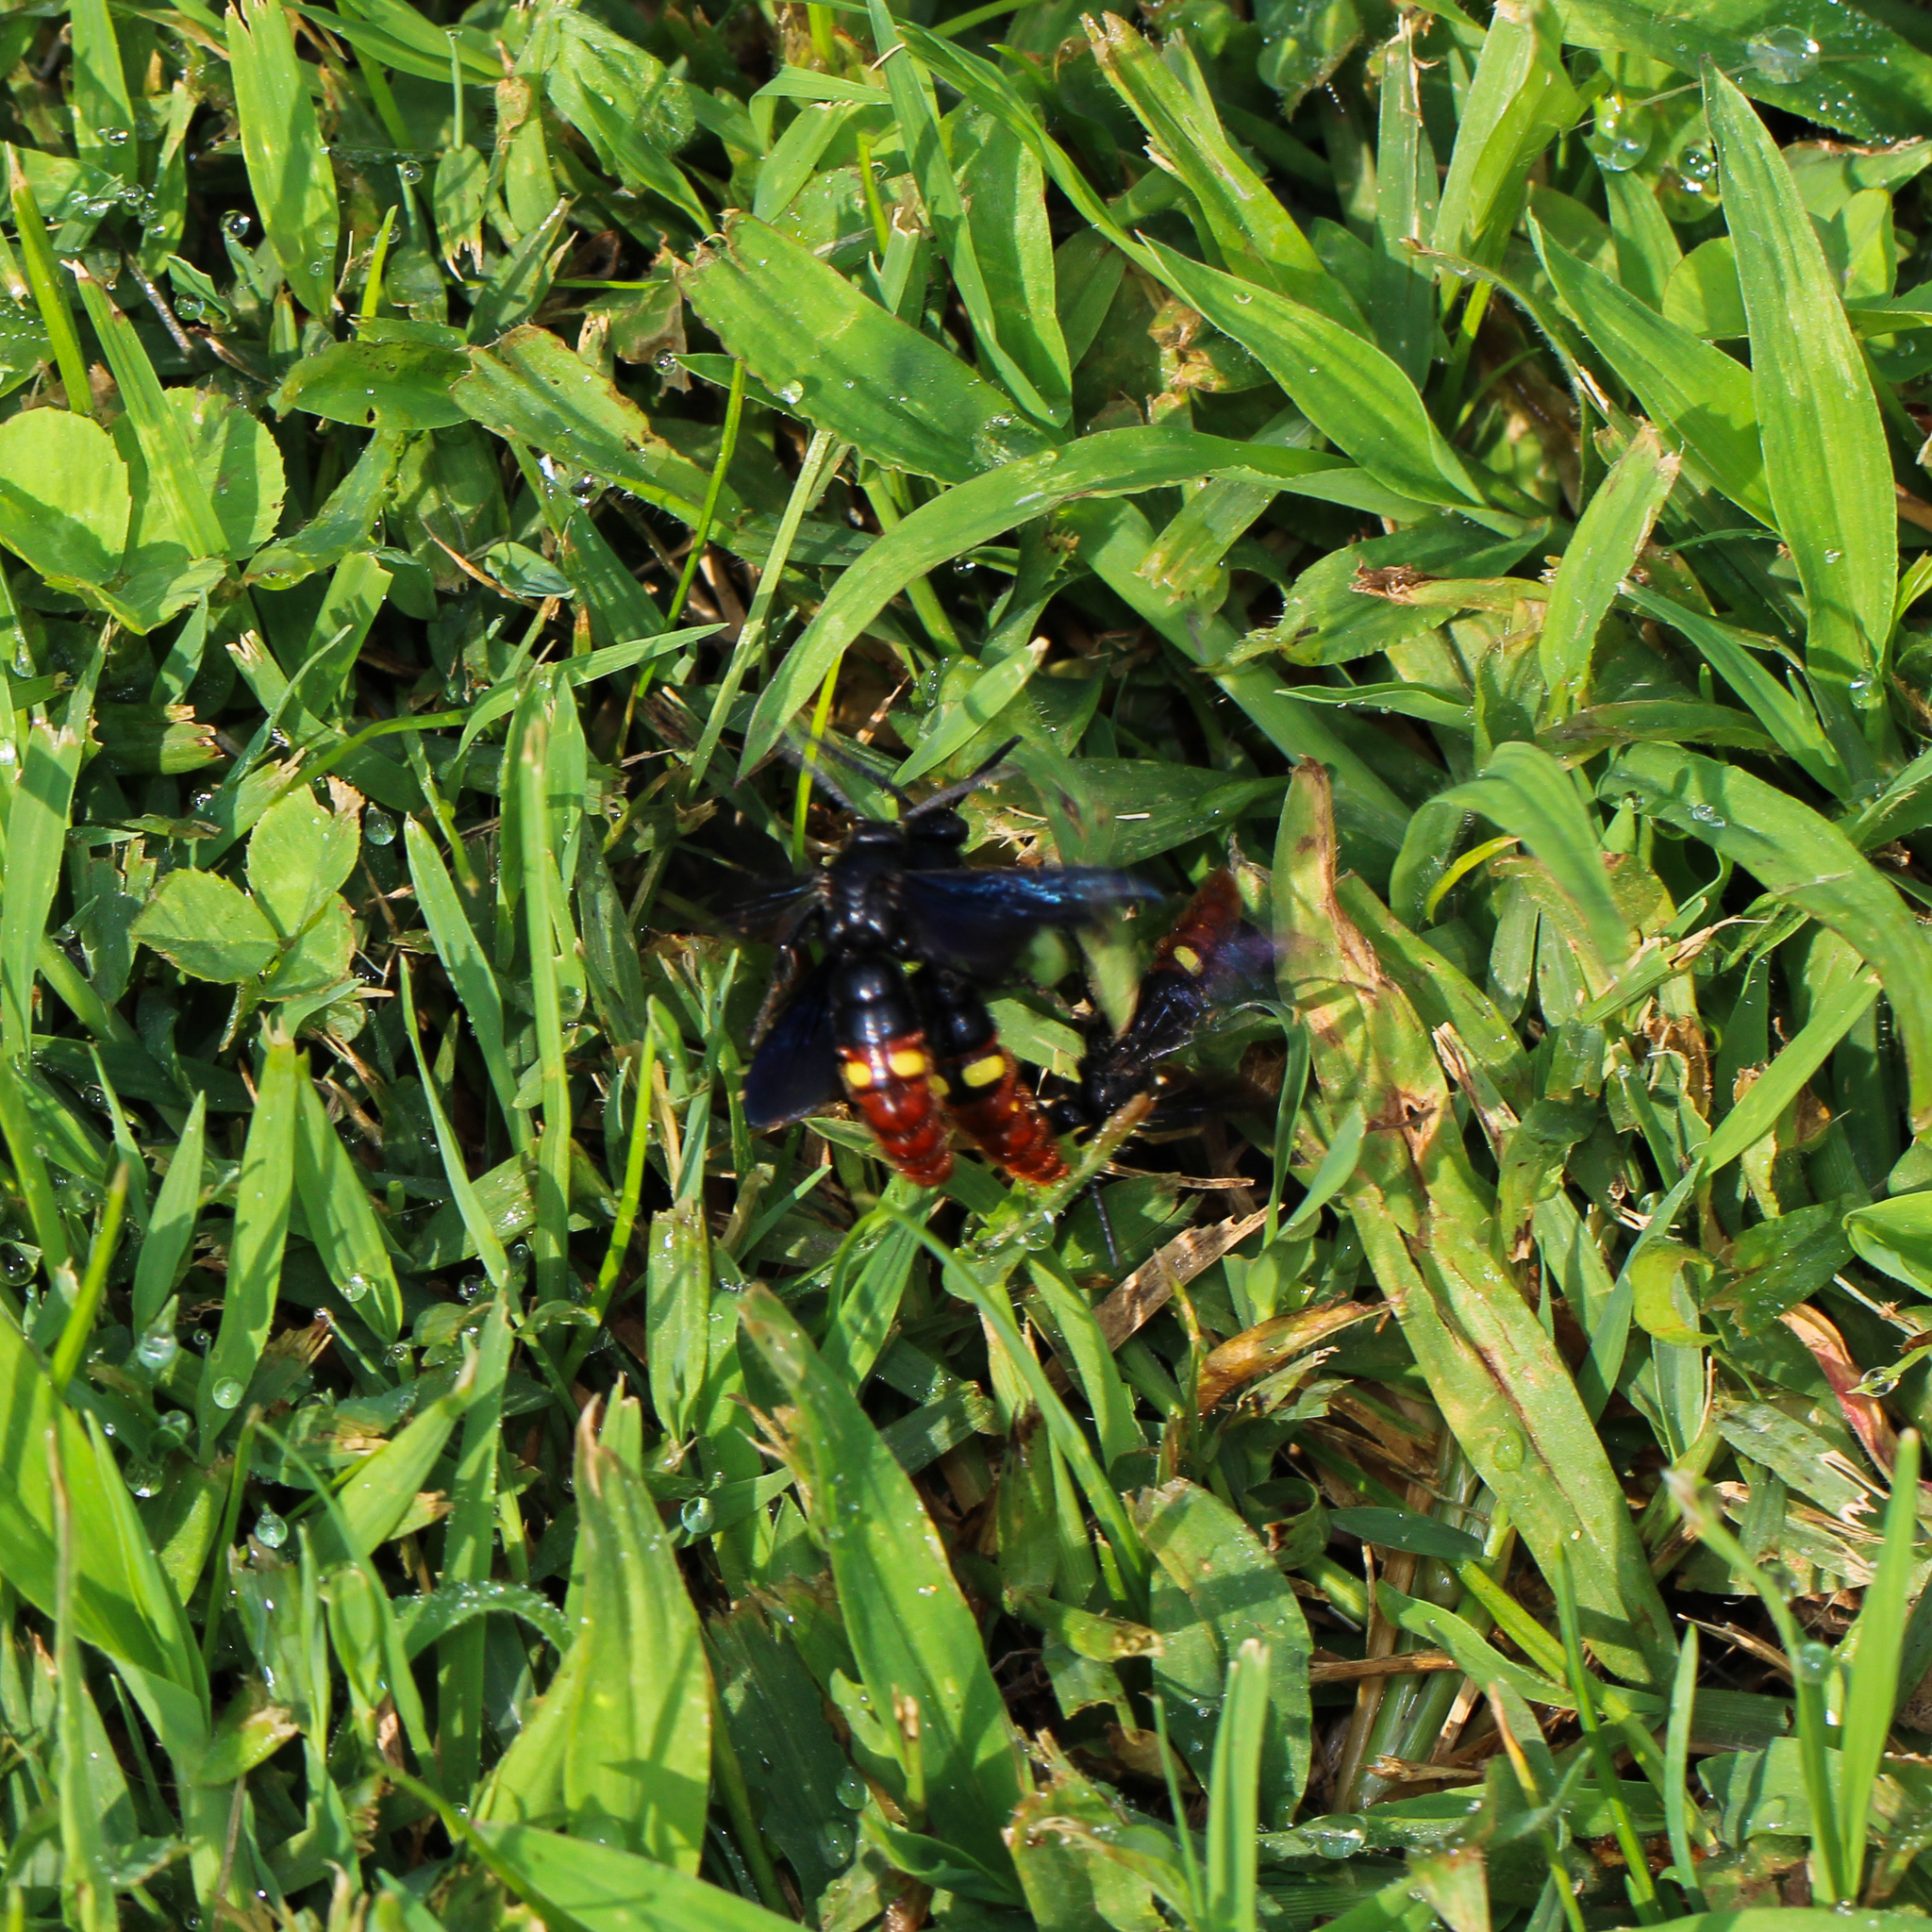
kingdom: Animalia
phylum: Arthropoda
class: Insecta
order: Hymenoptera
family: Scoliidae
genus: Scolia
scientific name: Scolia dubia
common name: Blue-winged scoliid wasp
